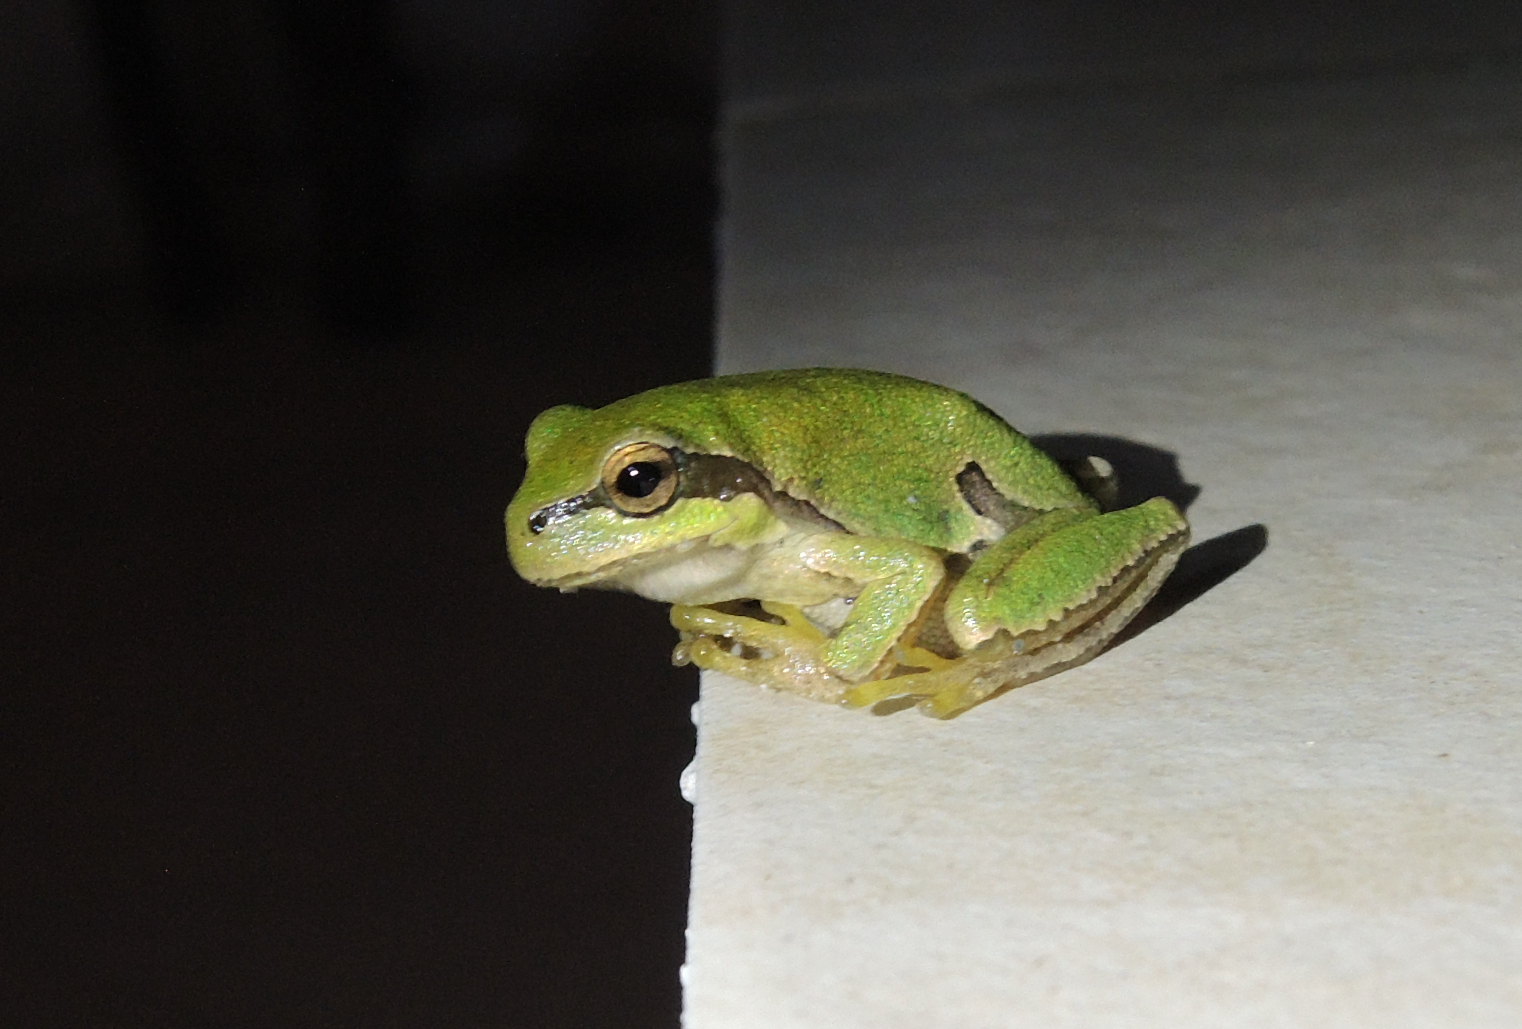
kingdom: Animalia
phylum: Chordata
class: Amphibia
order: Anura
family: Hylidae
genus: Hyla
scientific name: Hyla orientalis
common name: Caucasian treefrog
